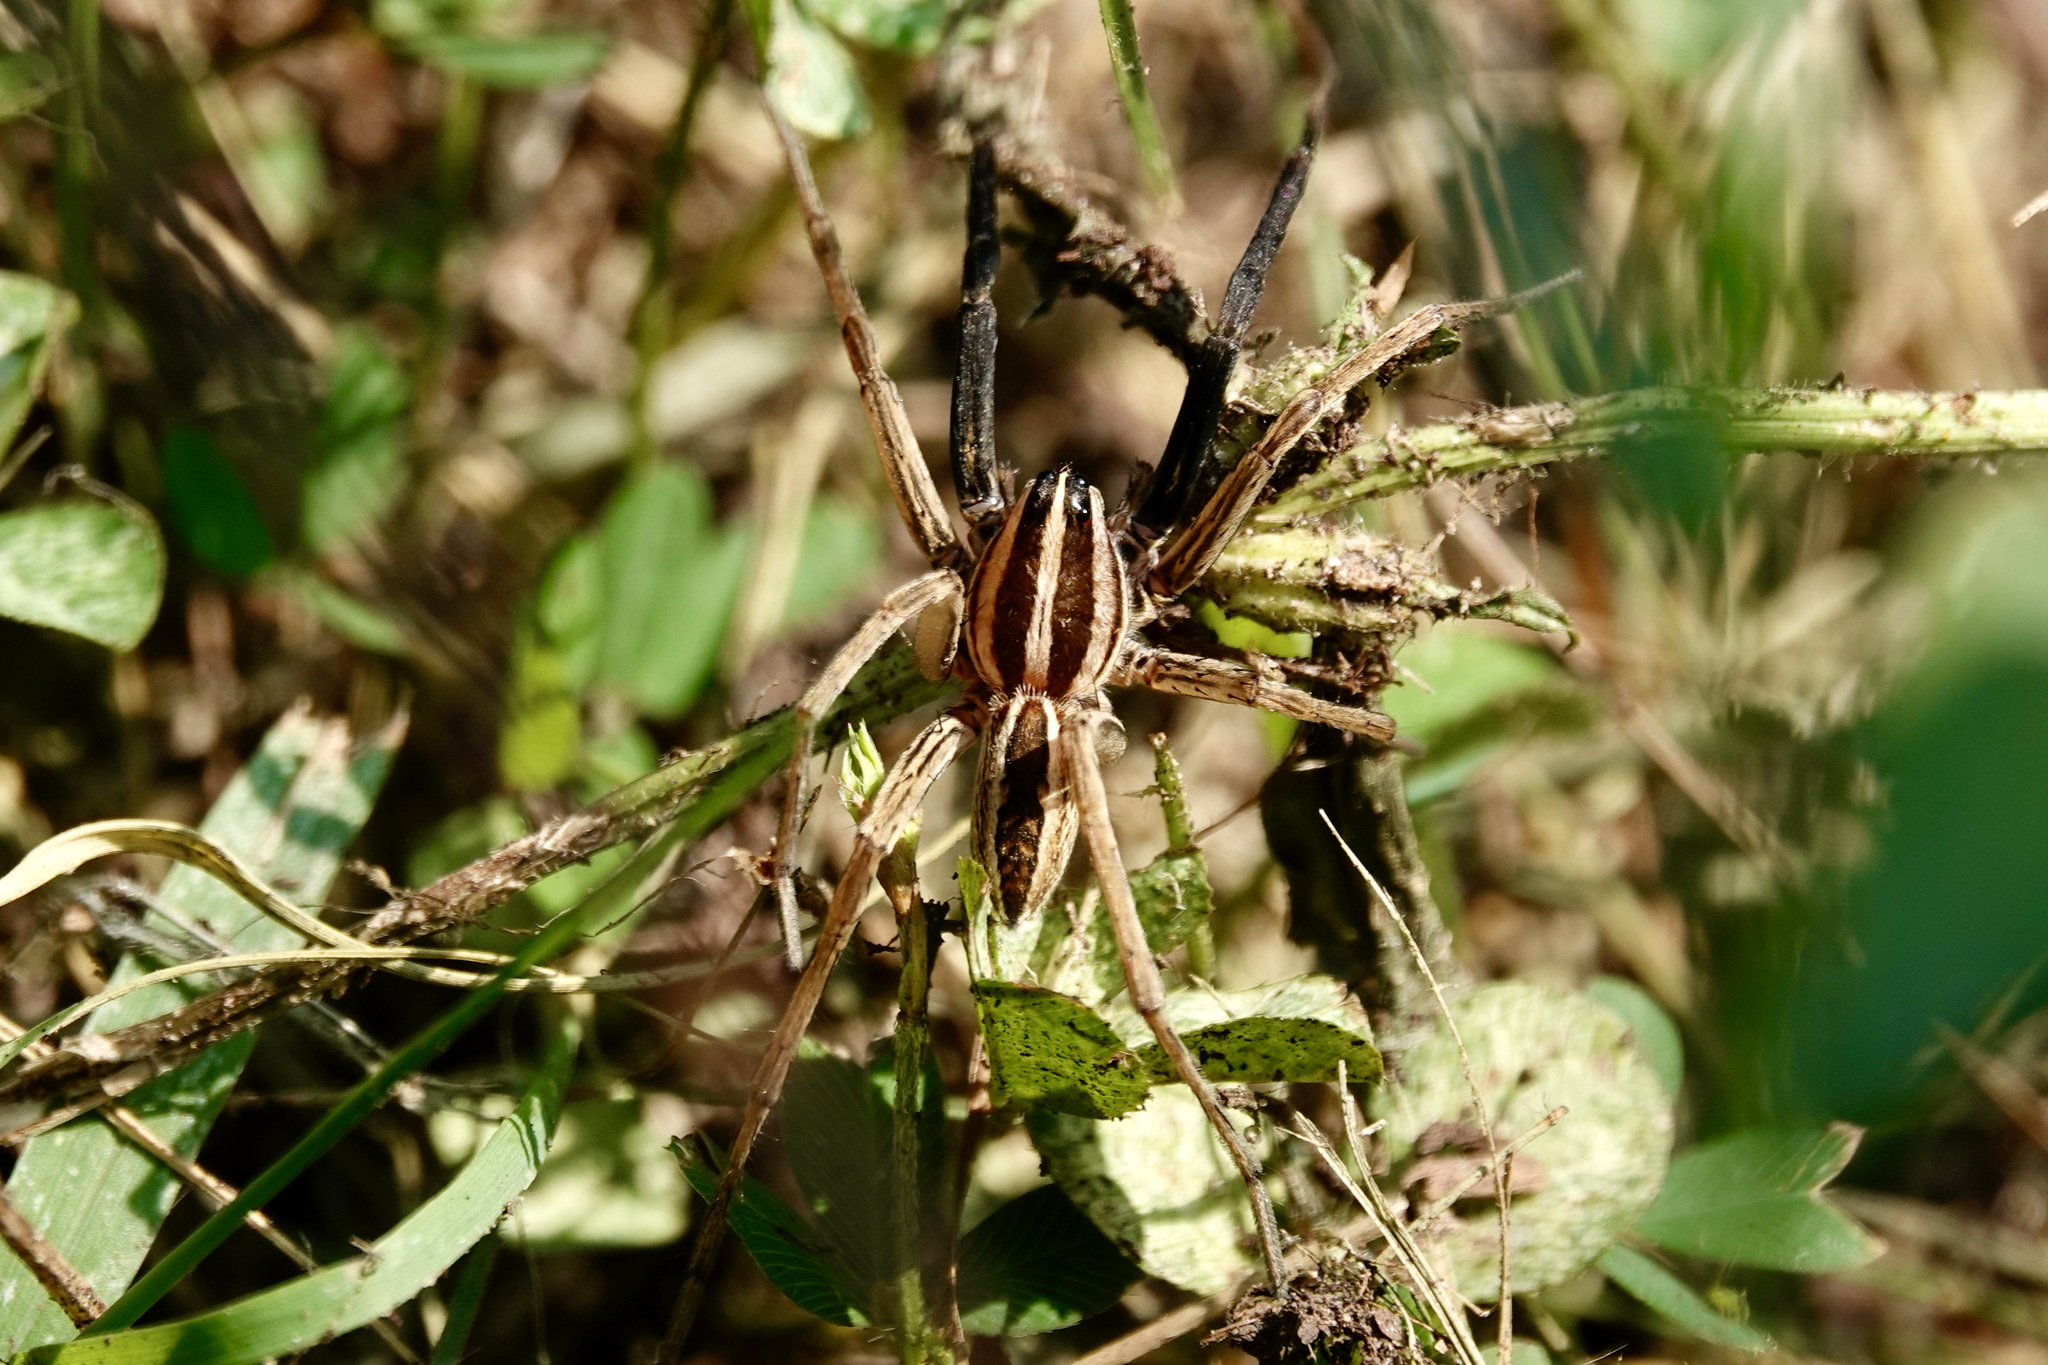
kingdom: Animalia
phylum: Arthropoda
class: Arachnida
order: Araneae
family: Lycosidae
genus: Rabidosa
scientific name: Rabidosa rabida
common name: Rabid wolf spider
